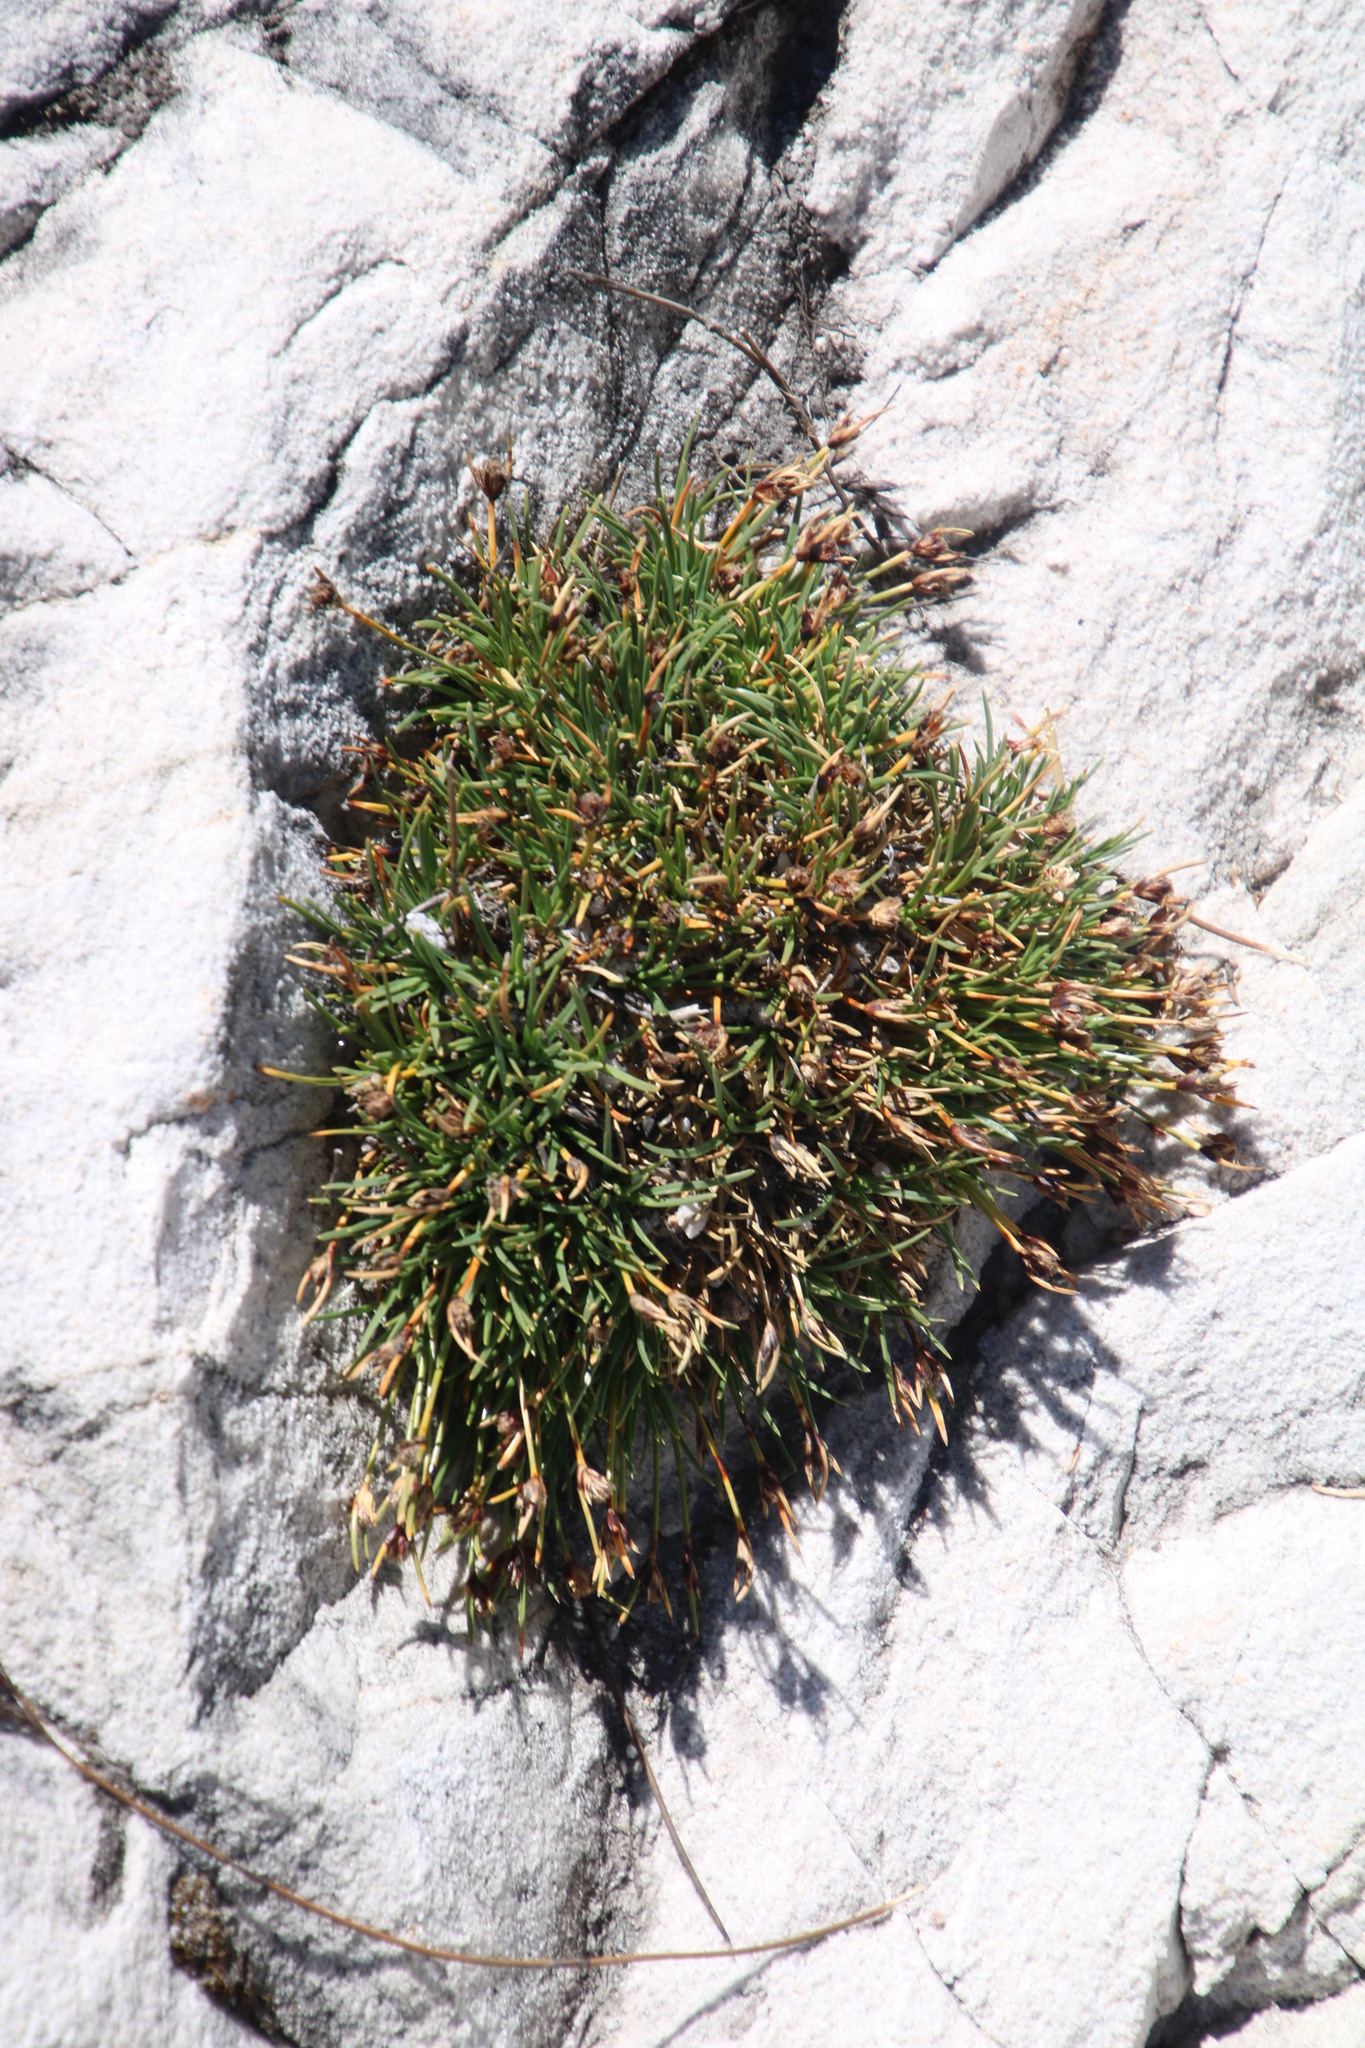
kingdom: Plantae
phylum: Tracheophyta
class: Liliopsida
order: Poales
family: Cyperaceae
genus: Ficinia
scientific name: Ficinia montana
